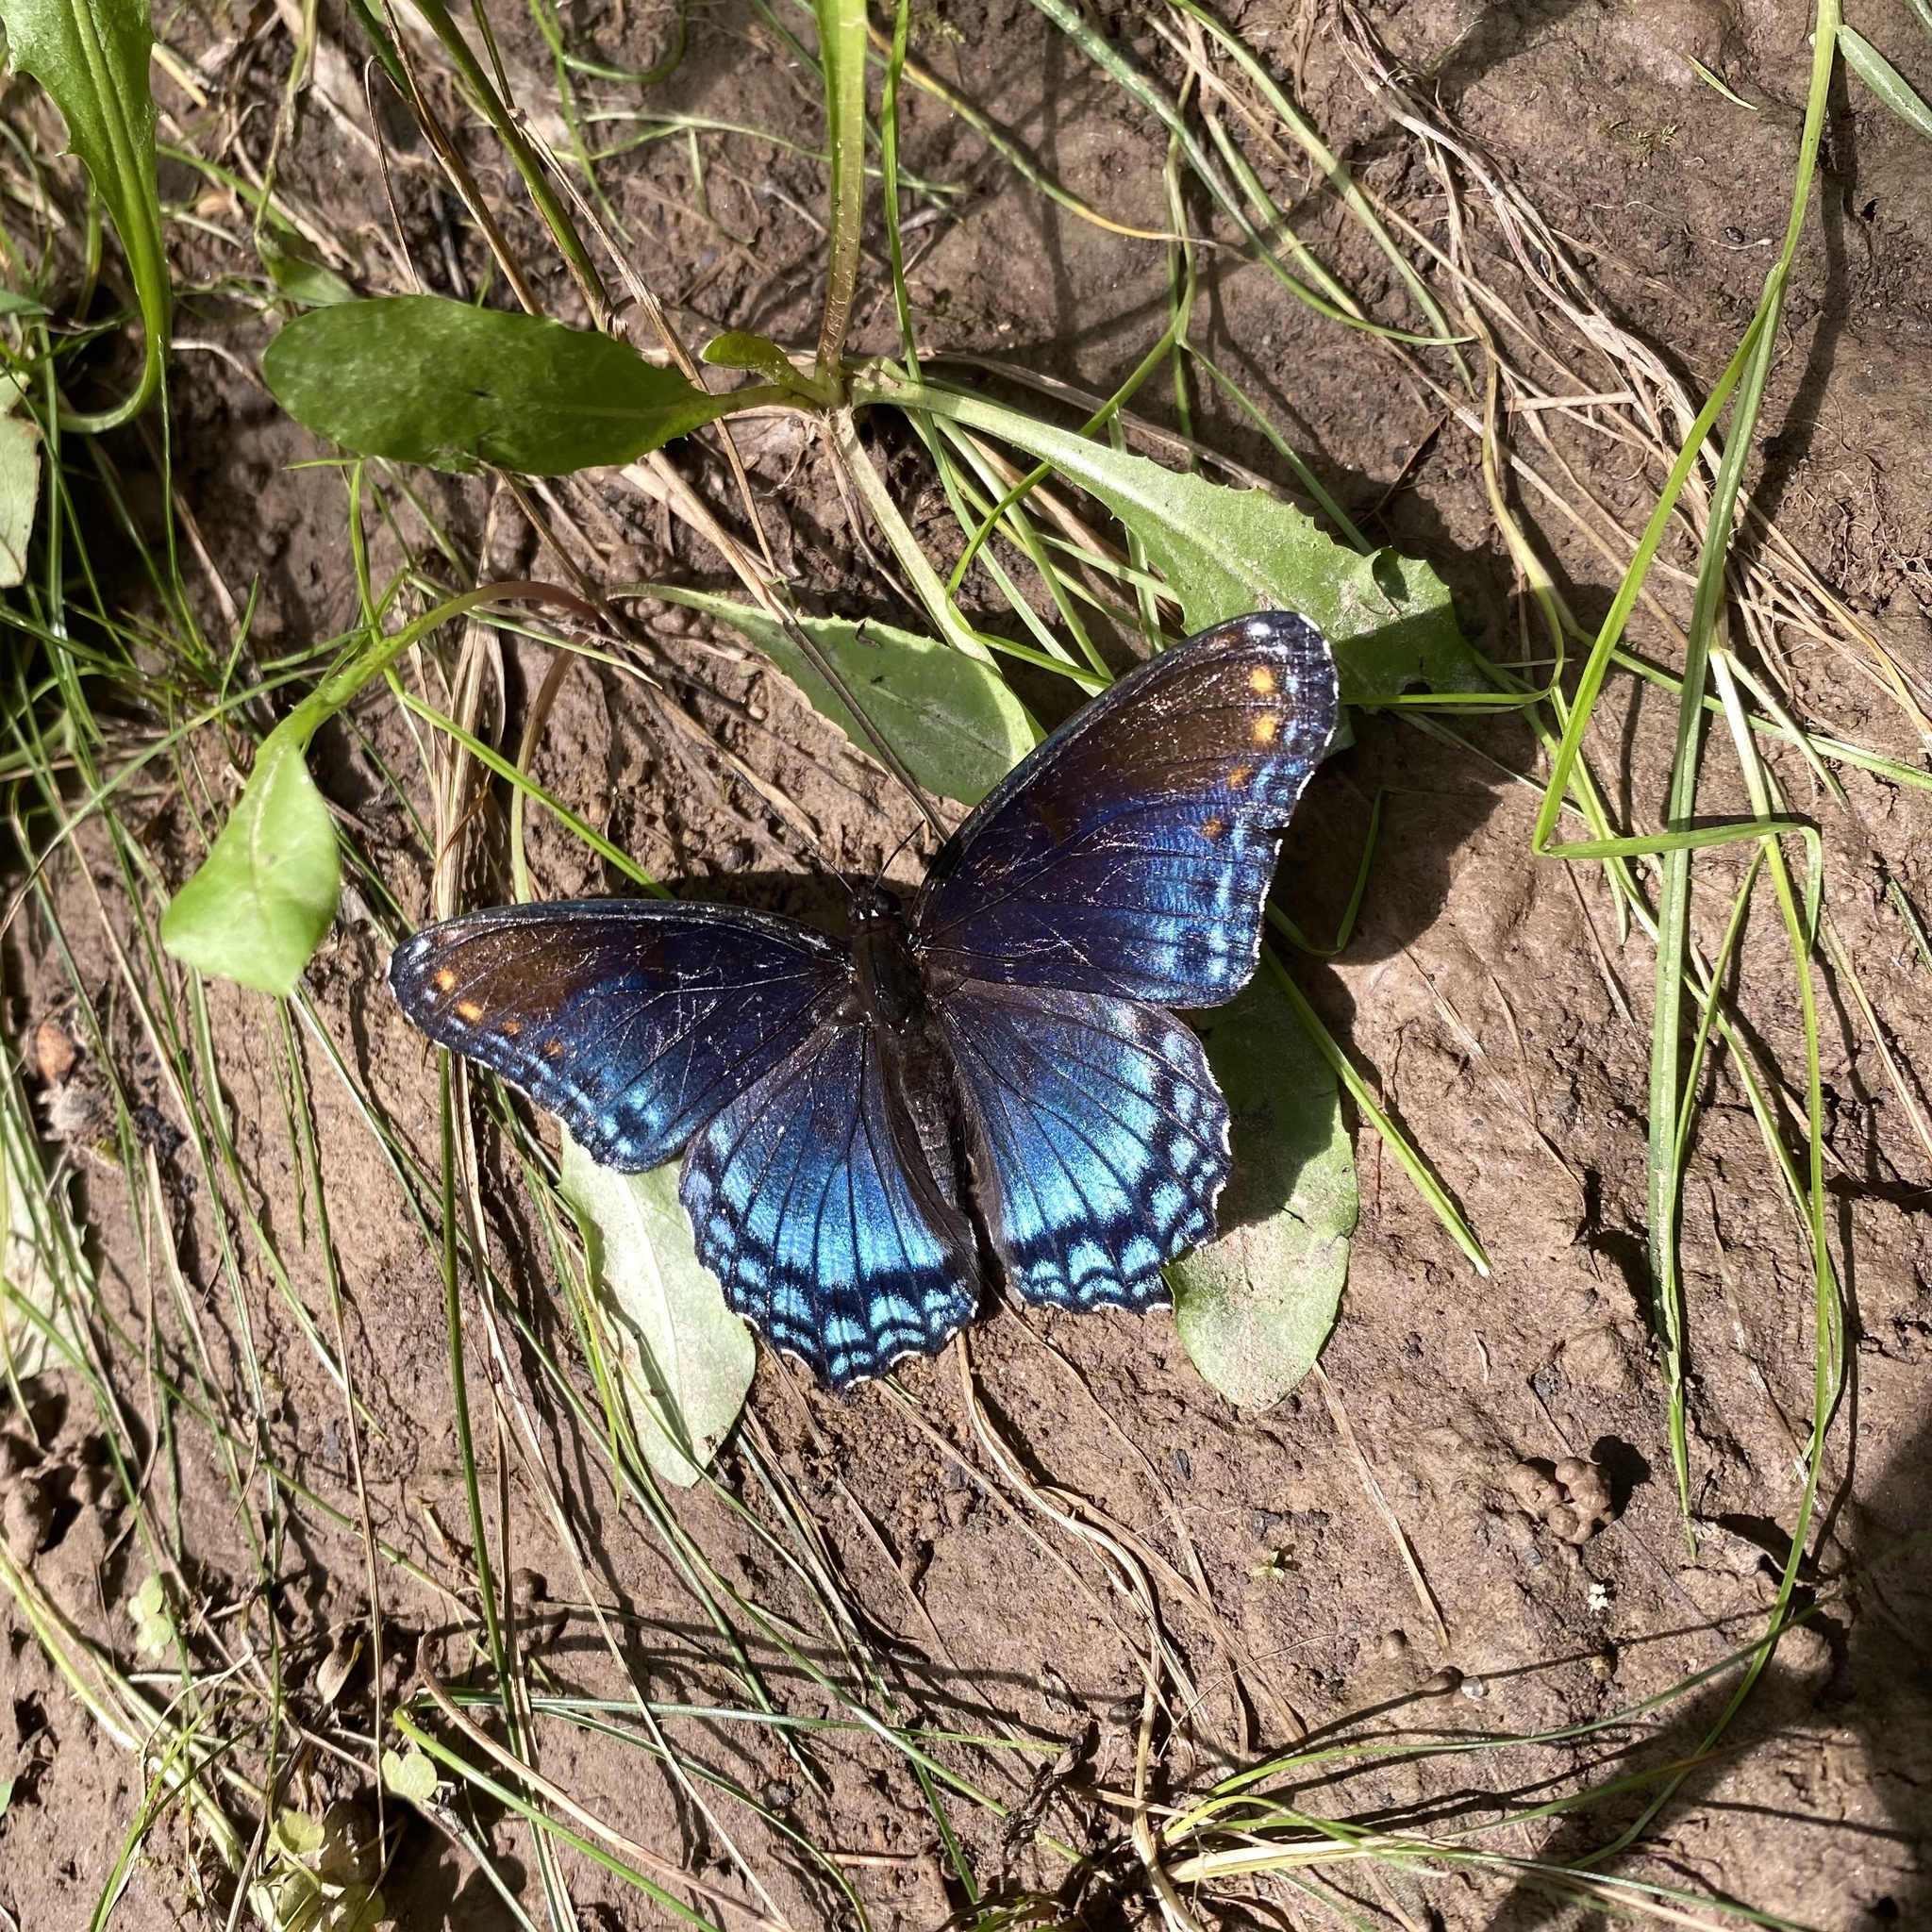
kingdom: Animalia
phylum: Arthropoda
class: Insecta
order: Lepidoptera
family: Nymphalidae
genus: Limenitis
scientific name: Limenitis astyanax
